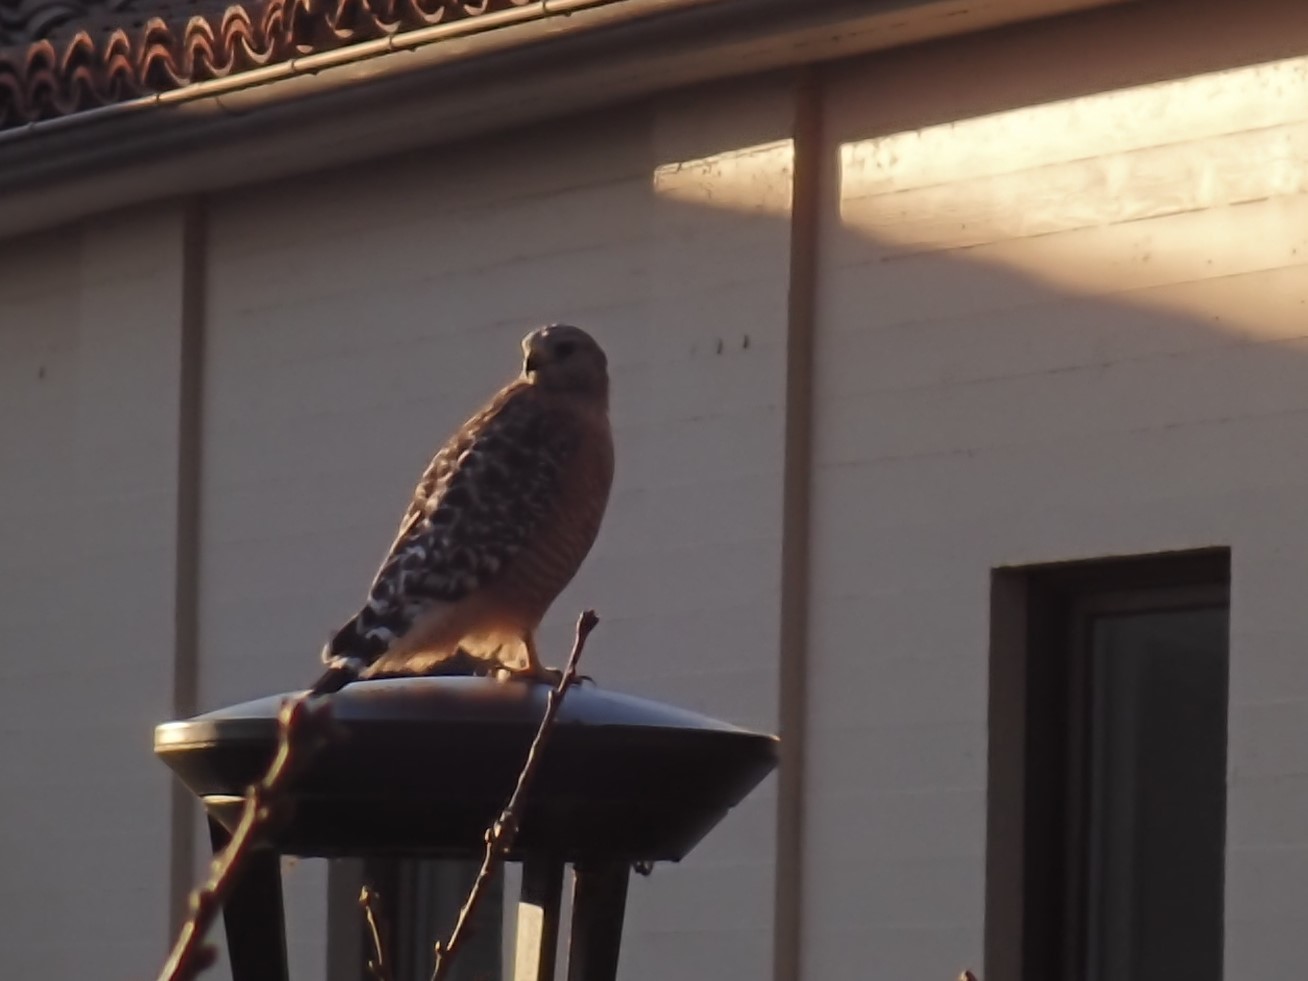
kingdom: Animalia
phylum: Chordata
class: Aves
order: Accipitriformes
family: Accipitridae
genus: Buteo
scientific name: Buteo lineatus
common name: Red-shouldered hawk
